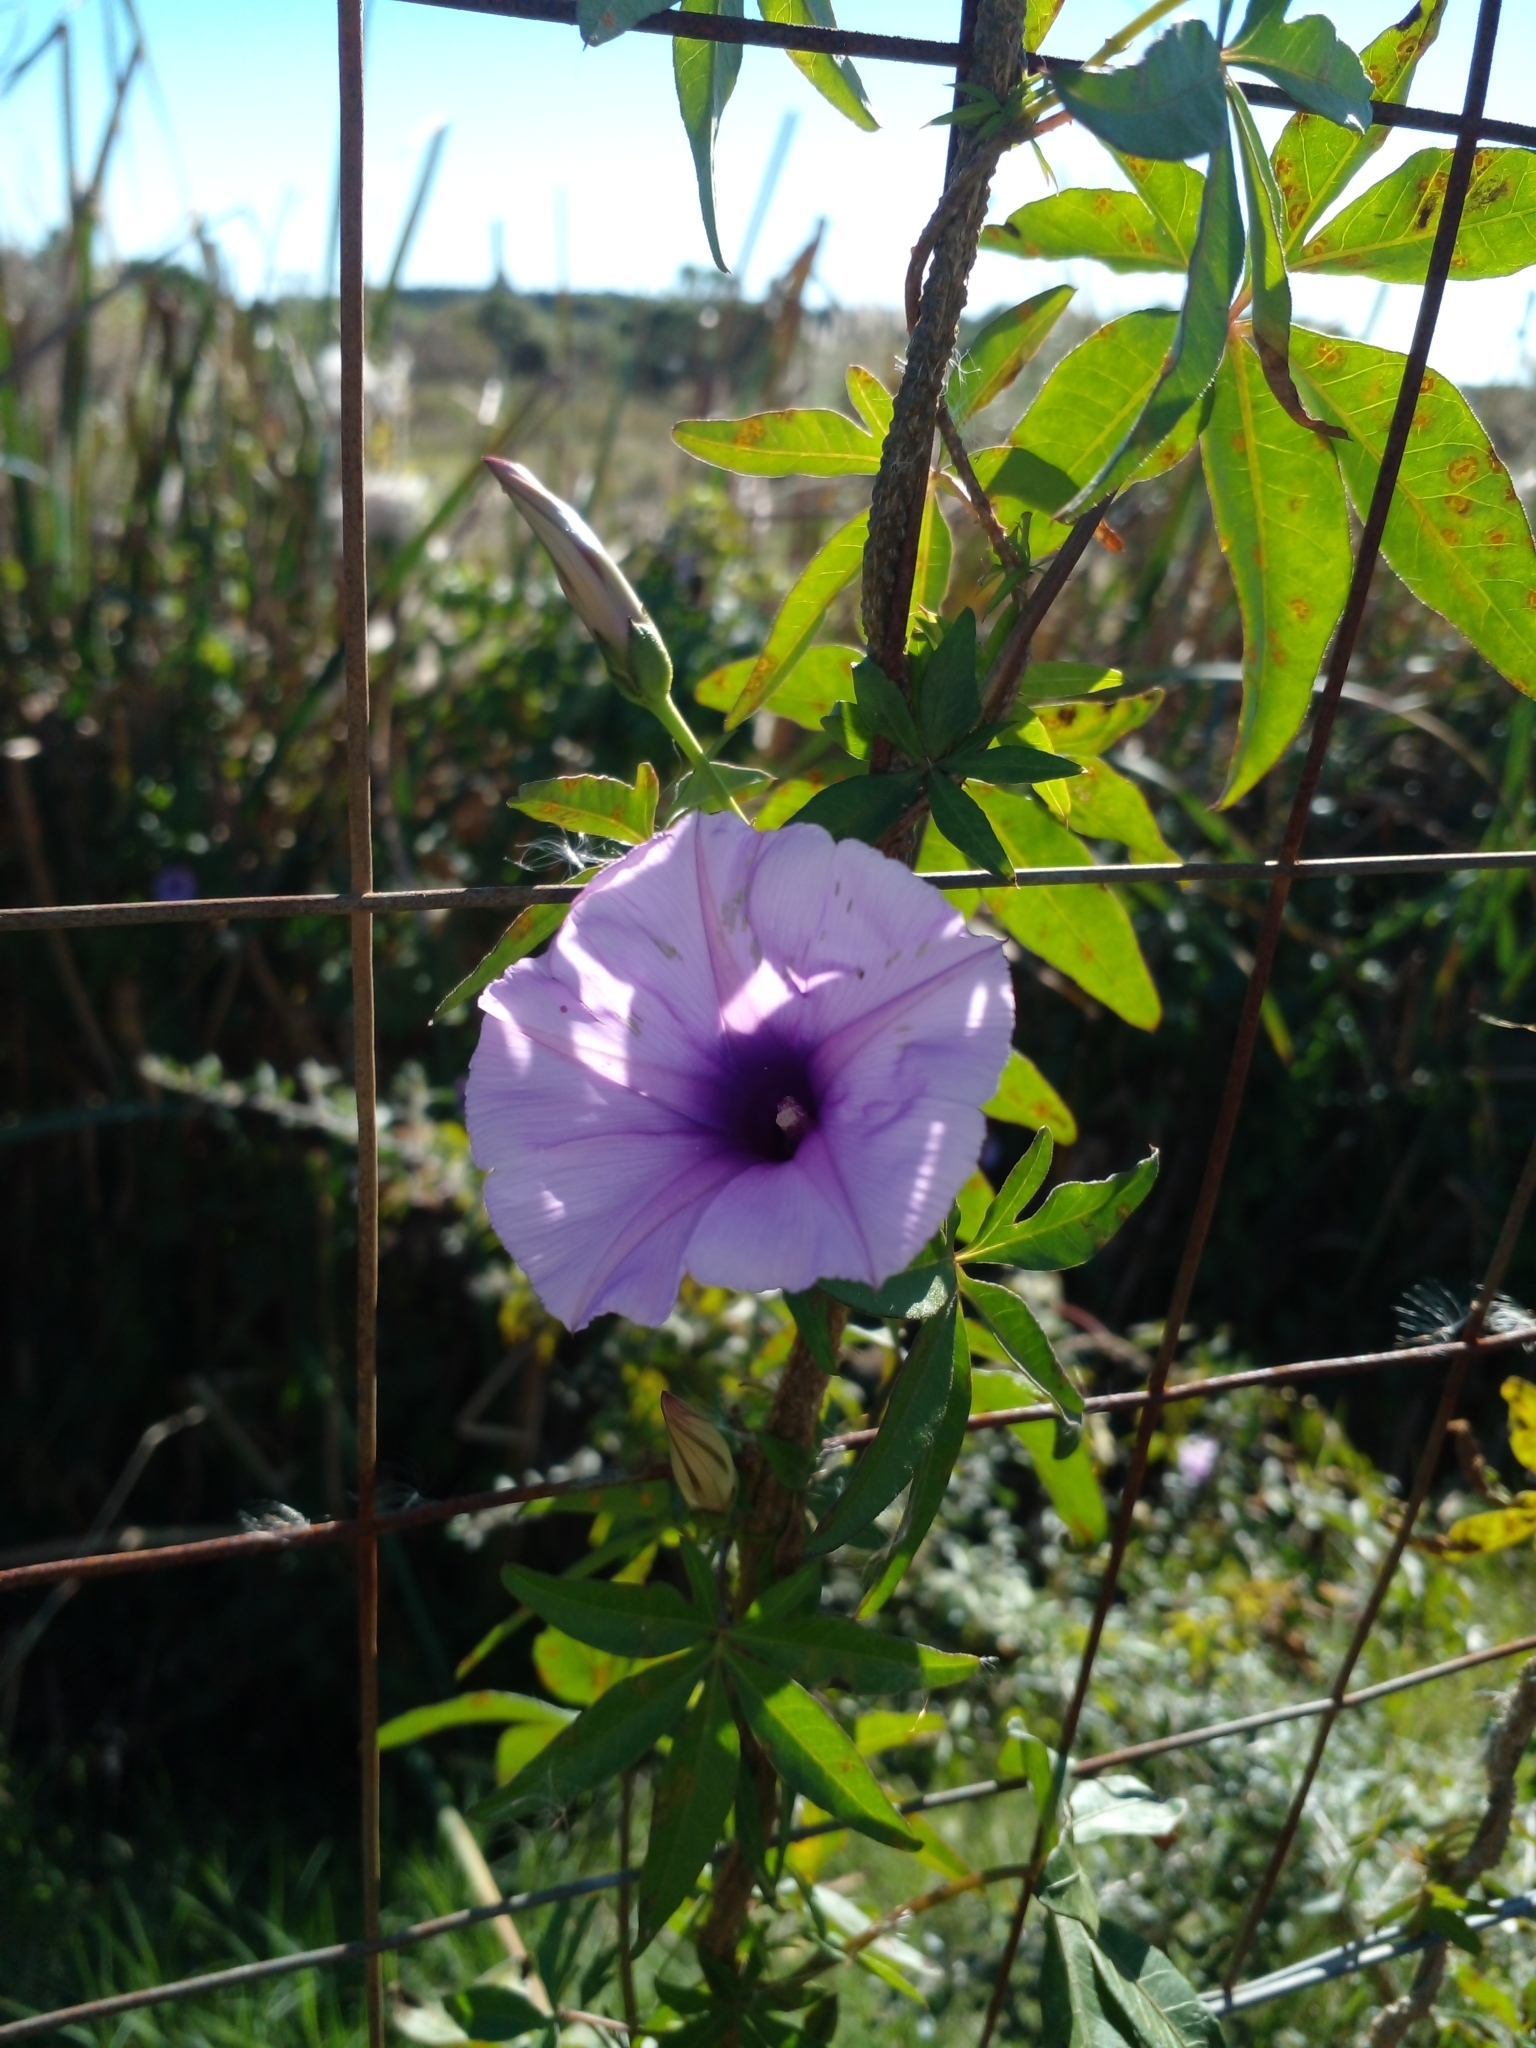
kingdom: Plantae
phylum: Tracheophyta
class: Magnoliopsida
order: Solanales
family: Convolvulaceae
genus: Ipomoea
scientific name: Ipomoea cairica
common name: Mile a minute vine
